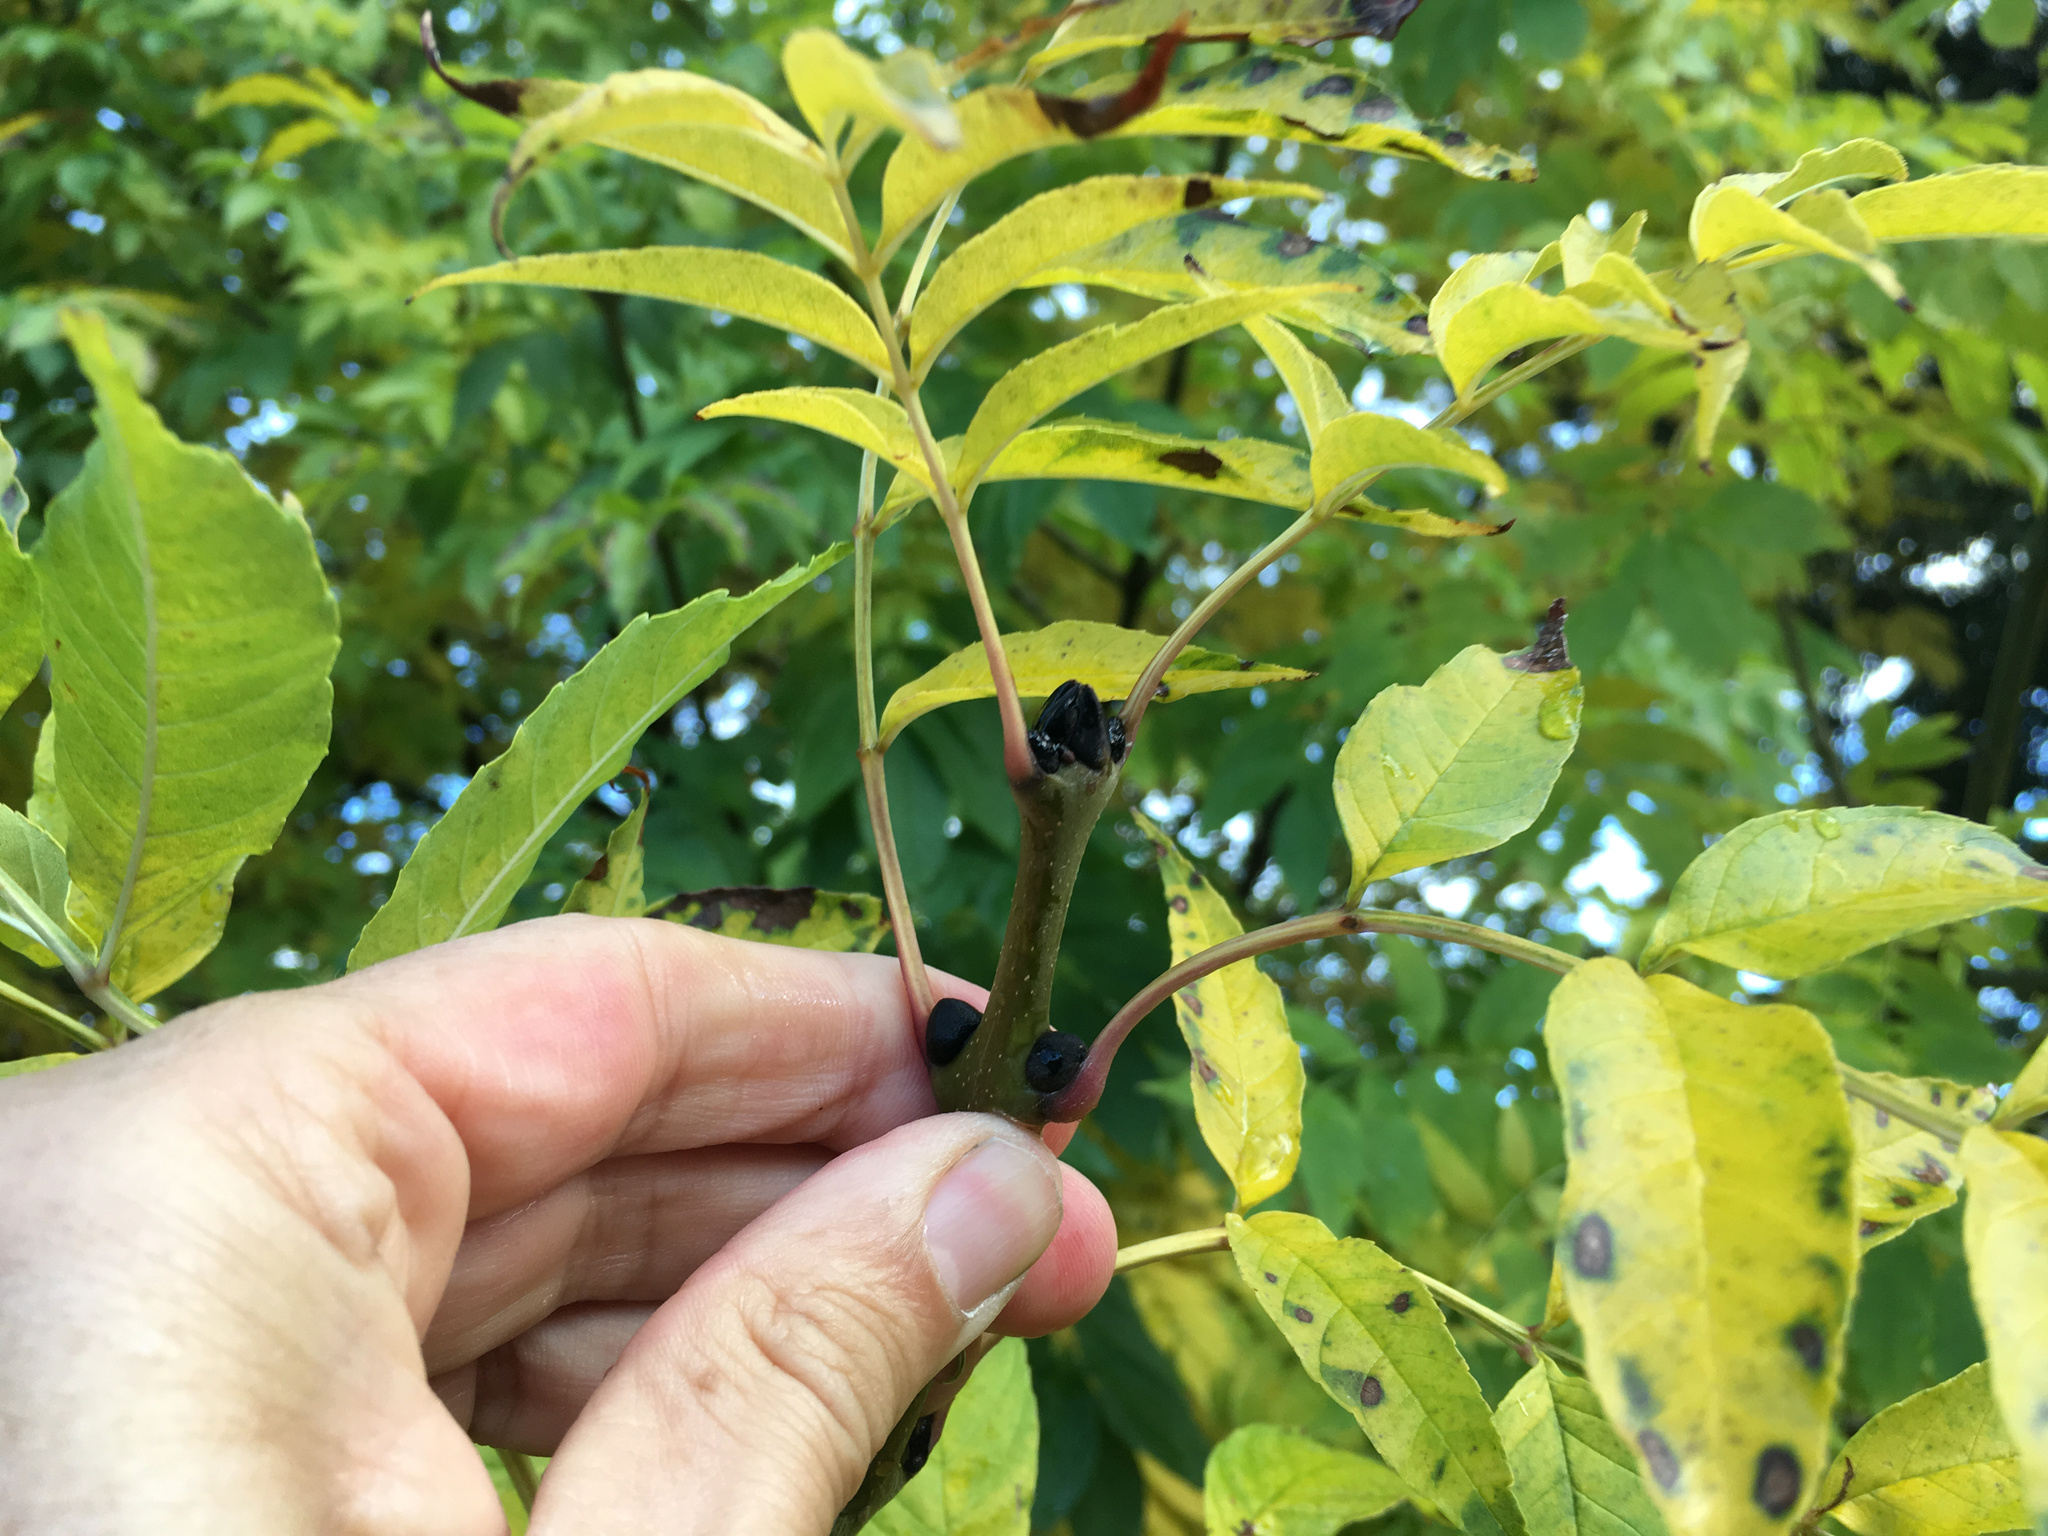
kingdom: Plantae
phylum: Tracheophyta
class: Magnoliopsida
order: Lamiales
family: Oleaceae
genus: Fraxinus
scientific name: Fraxinus excelsior
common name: European ash
